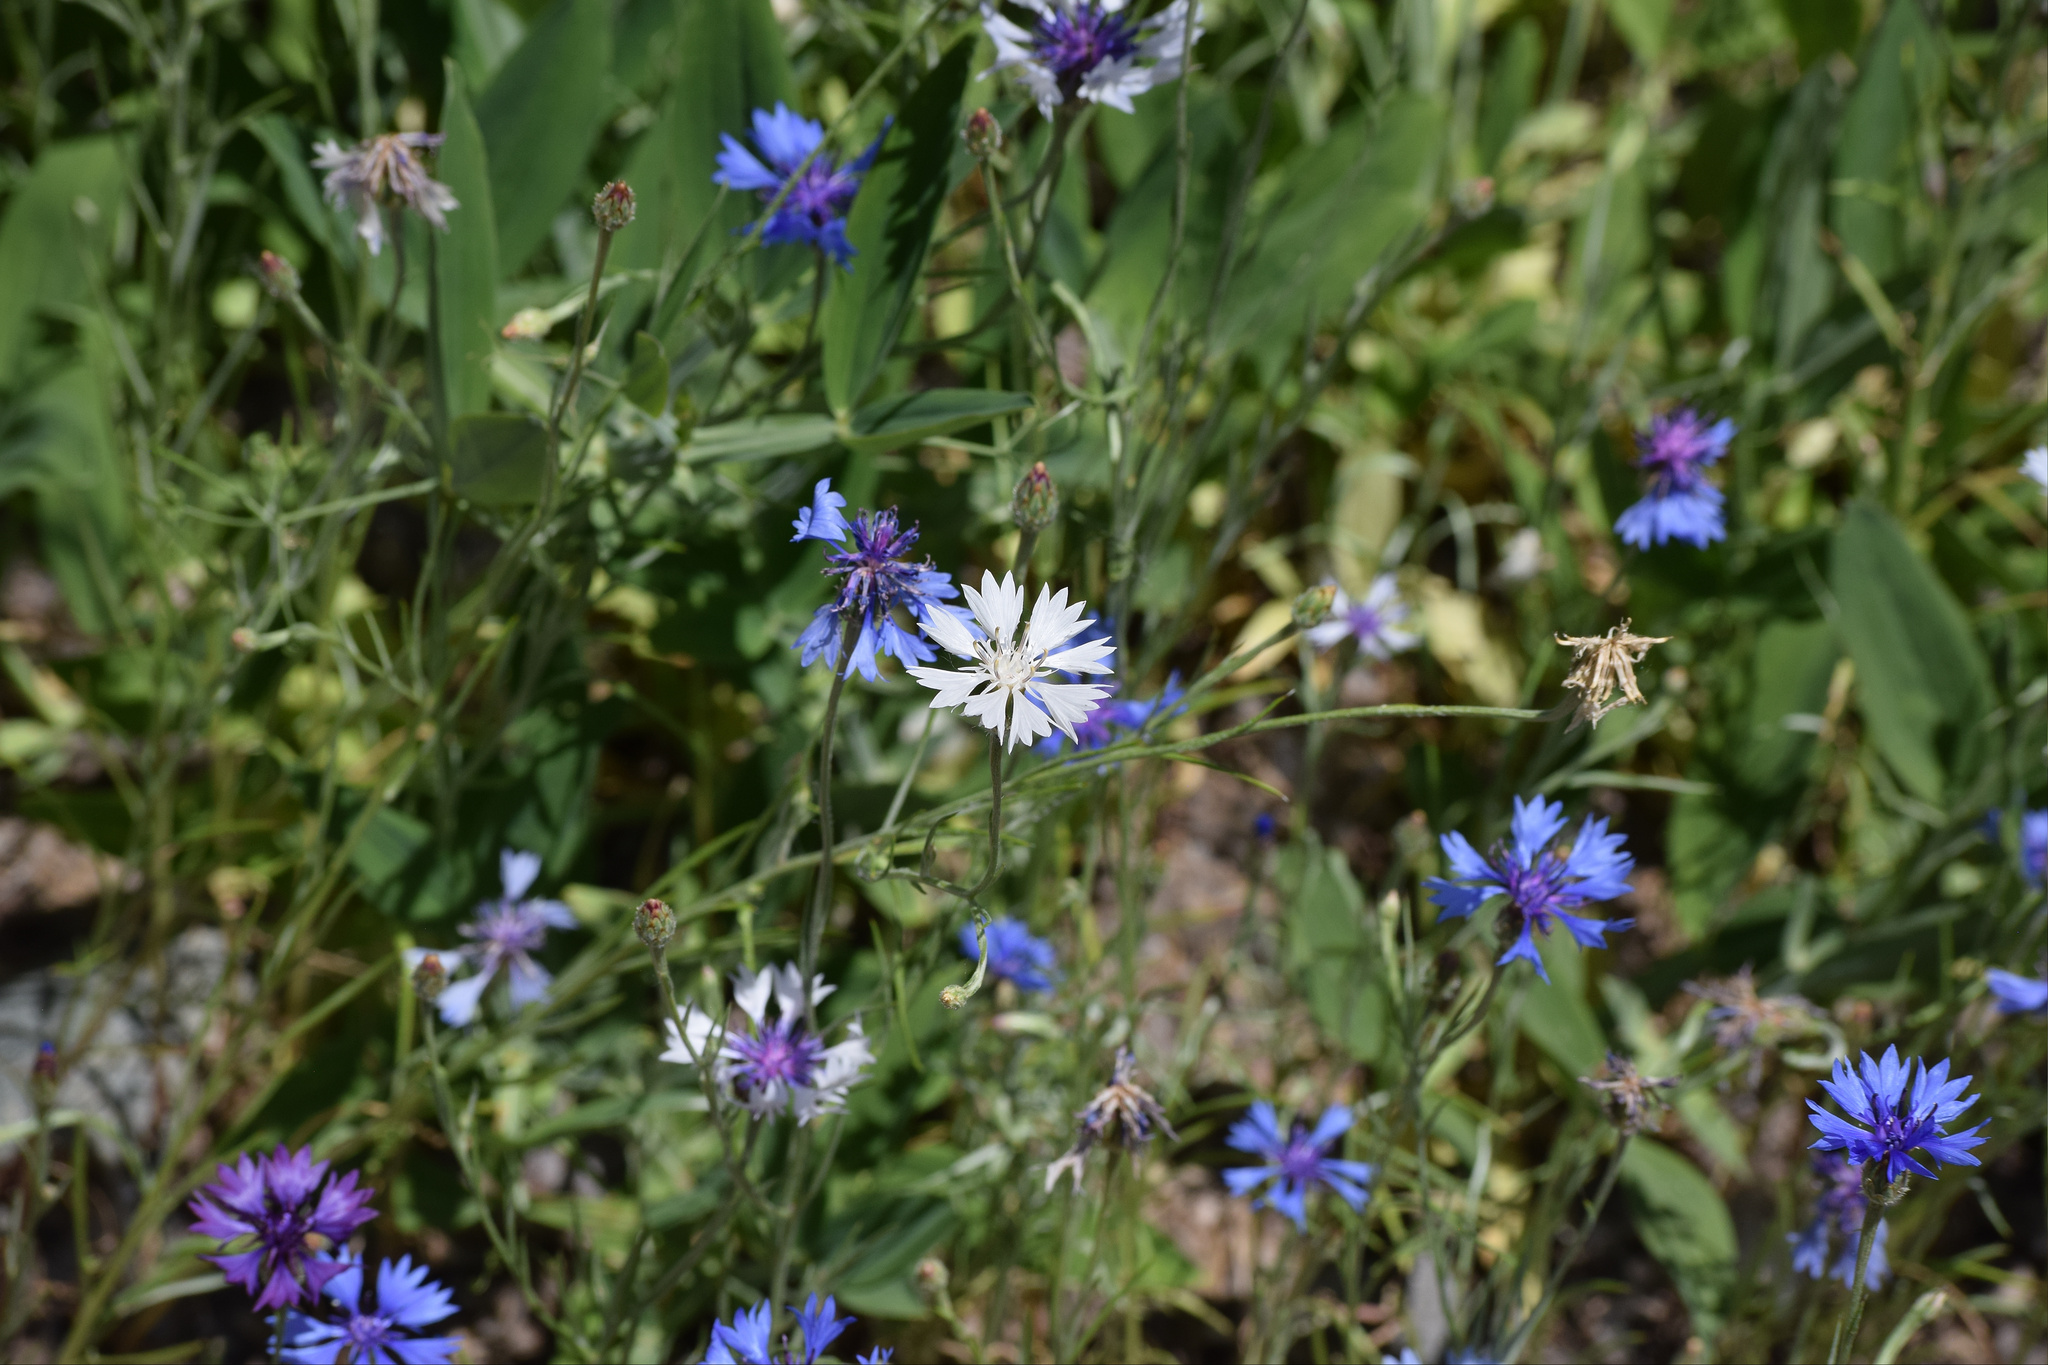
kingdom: Plantae
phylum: Tracheophyta
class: Magnoliopsida
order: Asterales
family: Asteraceae
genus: Centaurea
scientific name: Centaurea cyanus
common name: Cornflower
